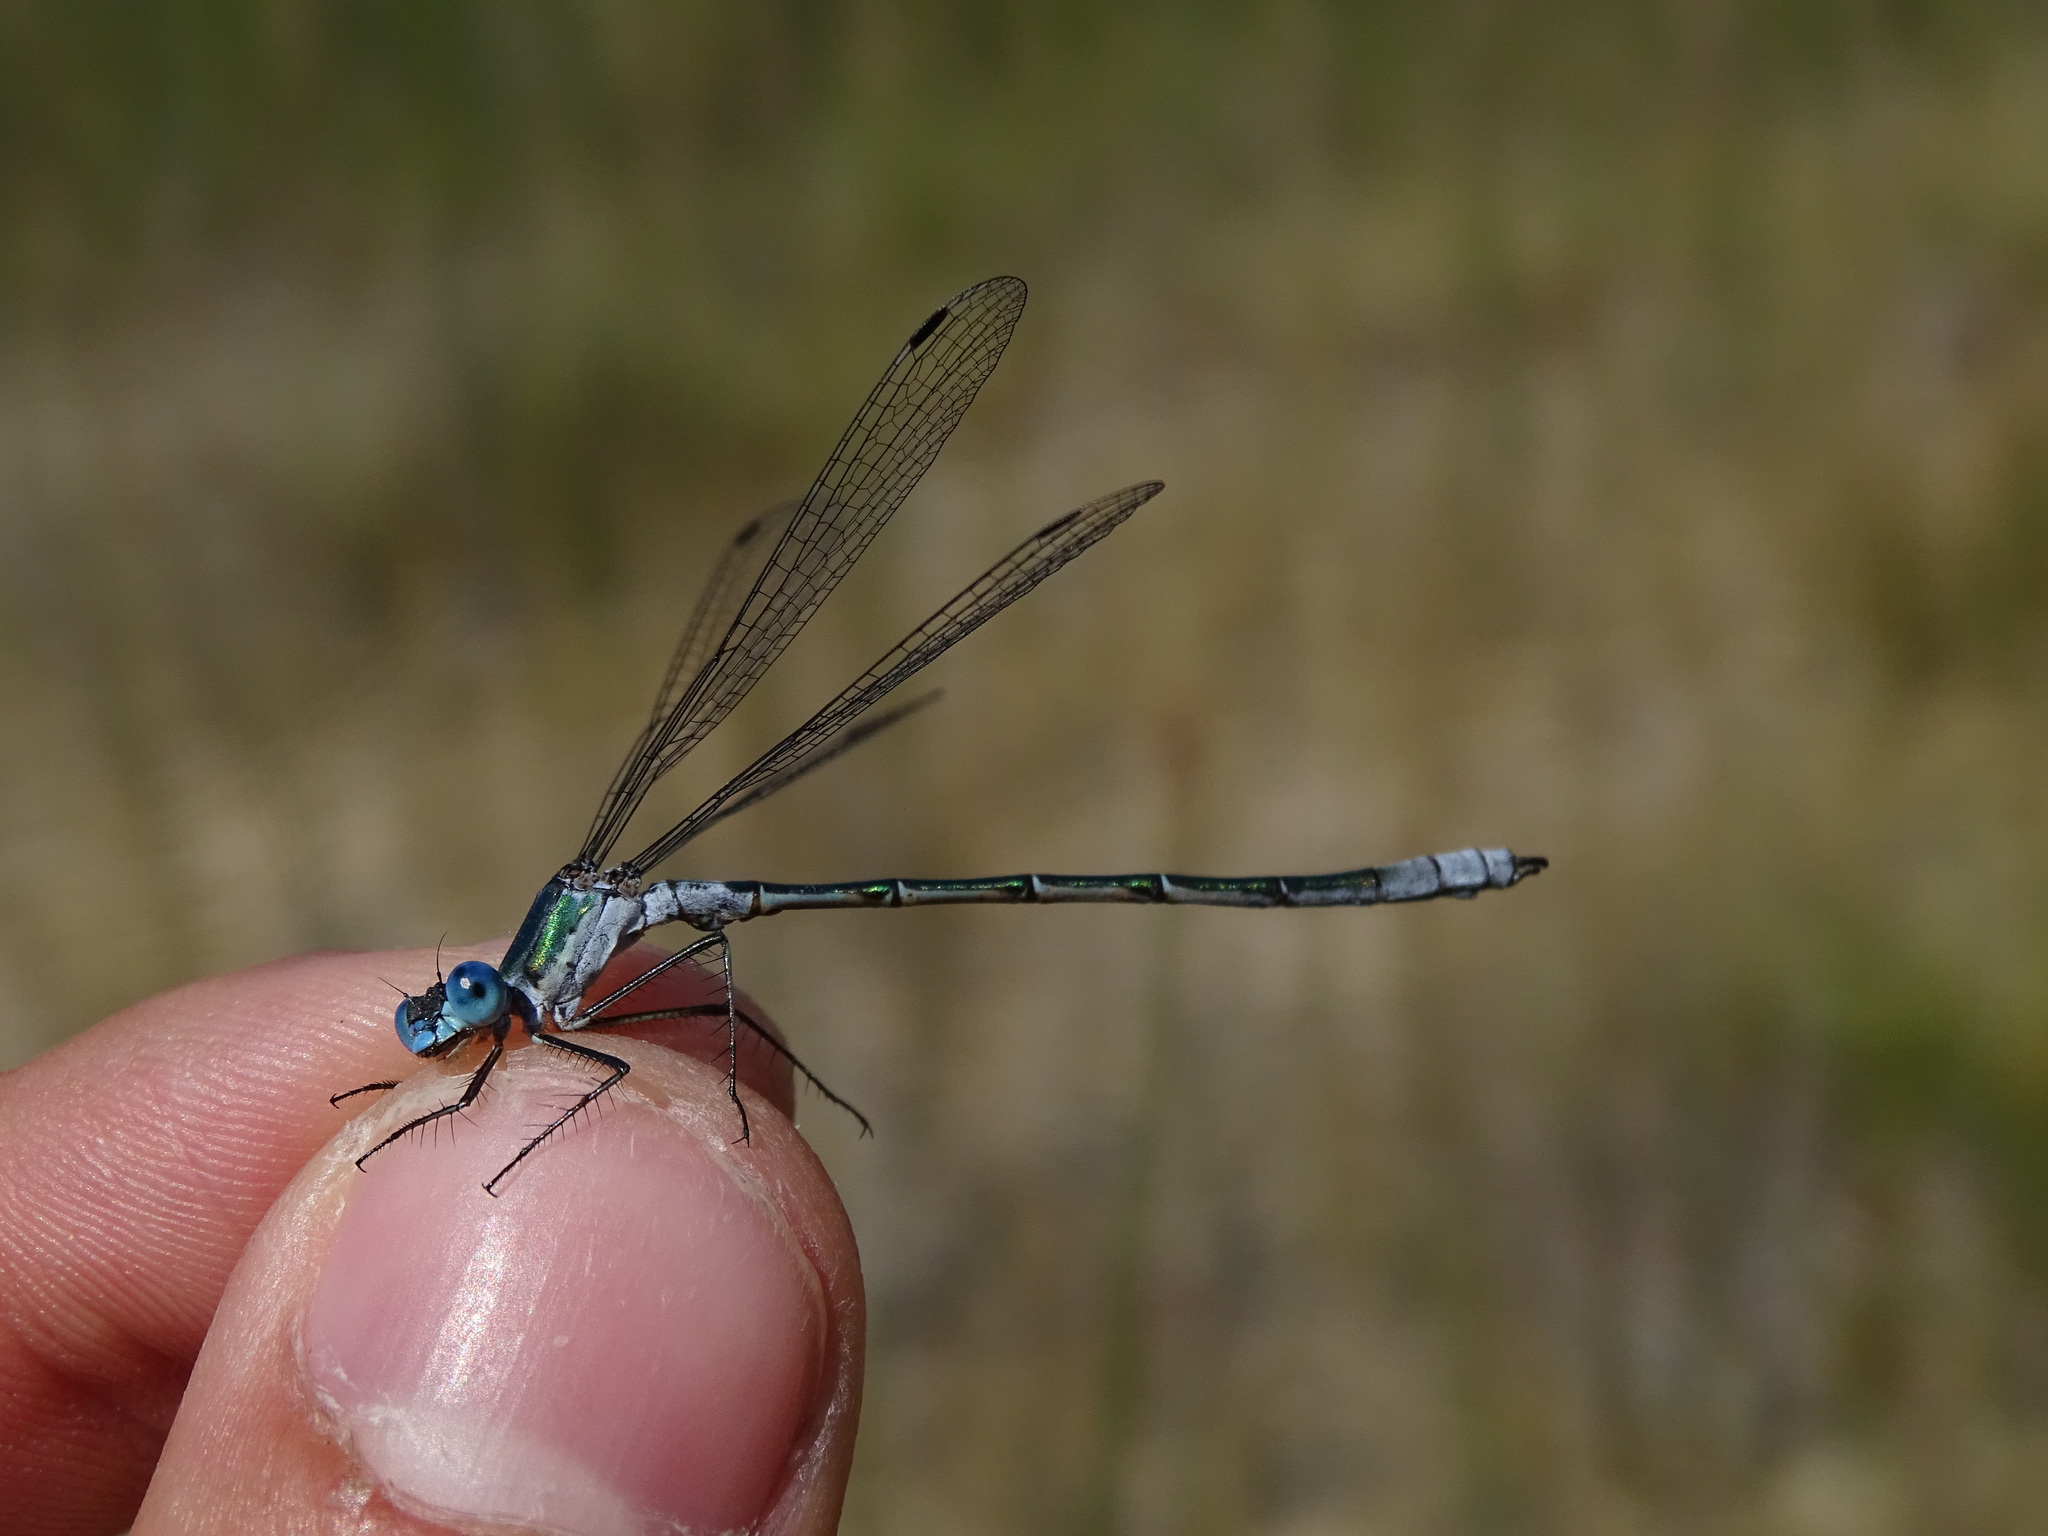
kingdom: Animalia
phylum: Arthropoda
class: Insecta
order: Odonata
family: Lestidae
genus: Lestes
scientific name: Lestes dryas
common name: Scarce emerald damselfly
